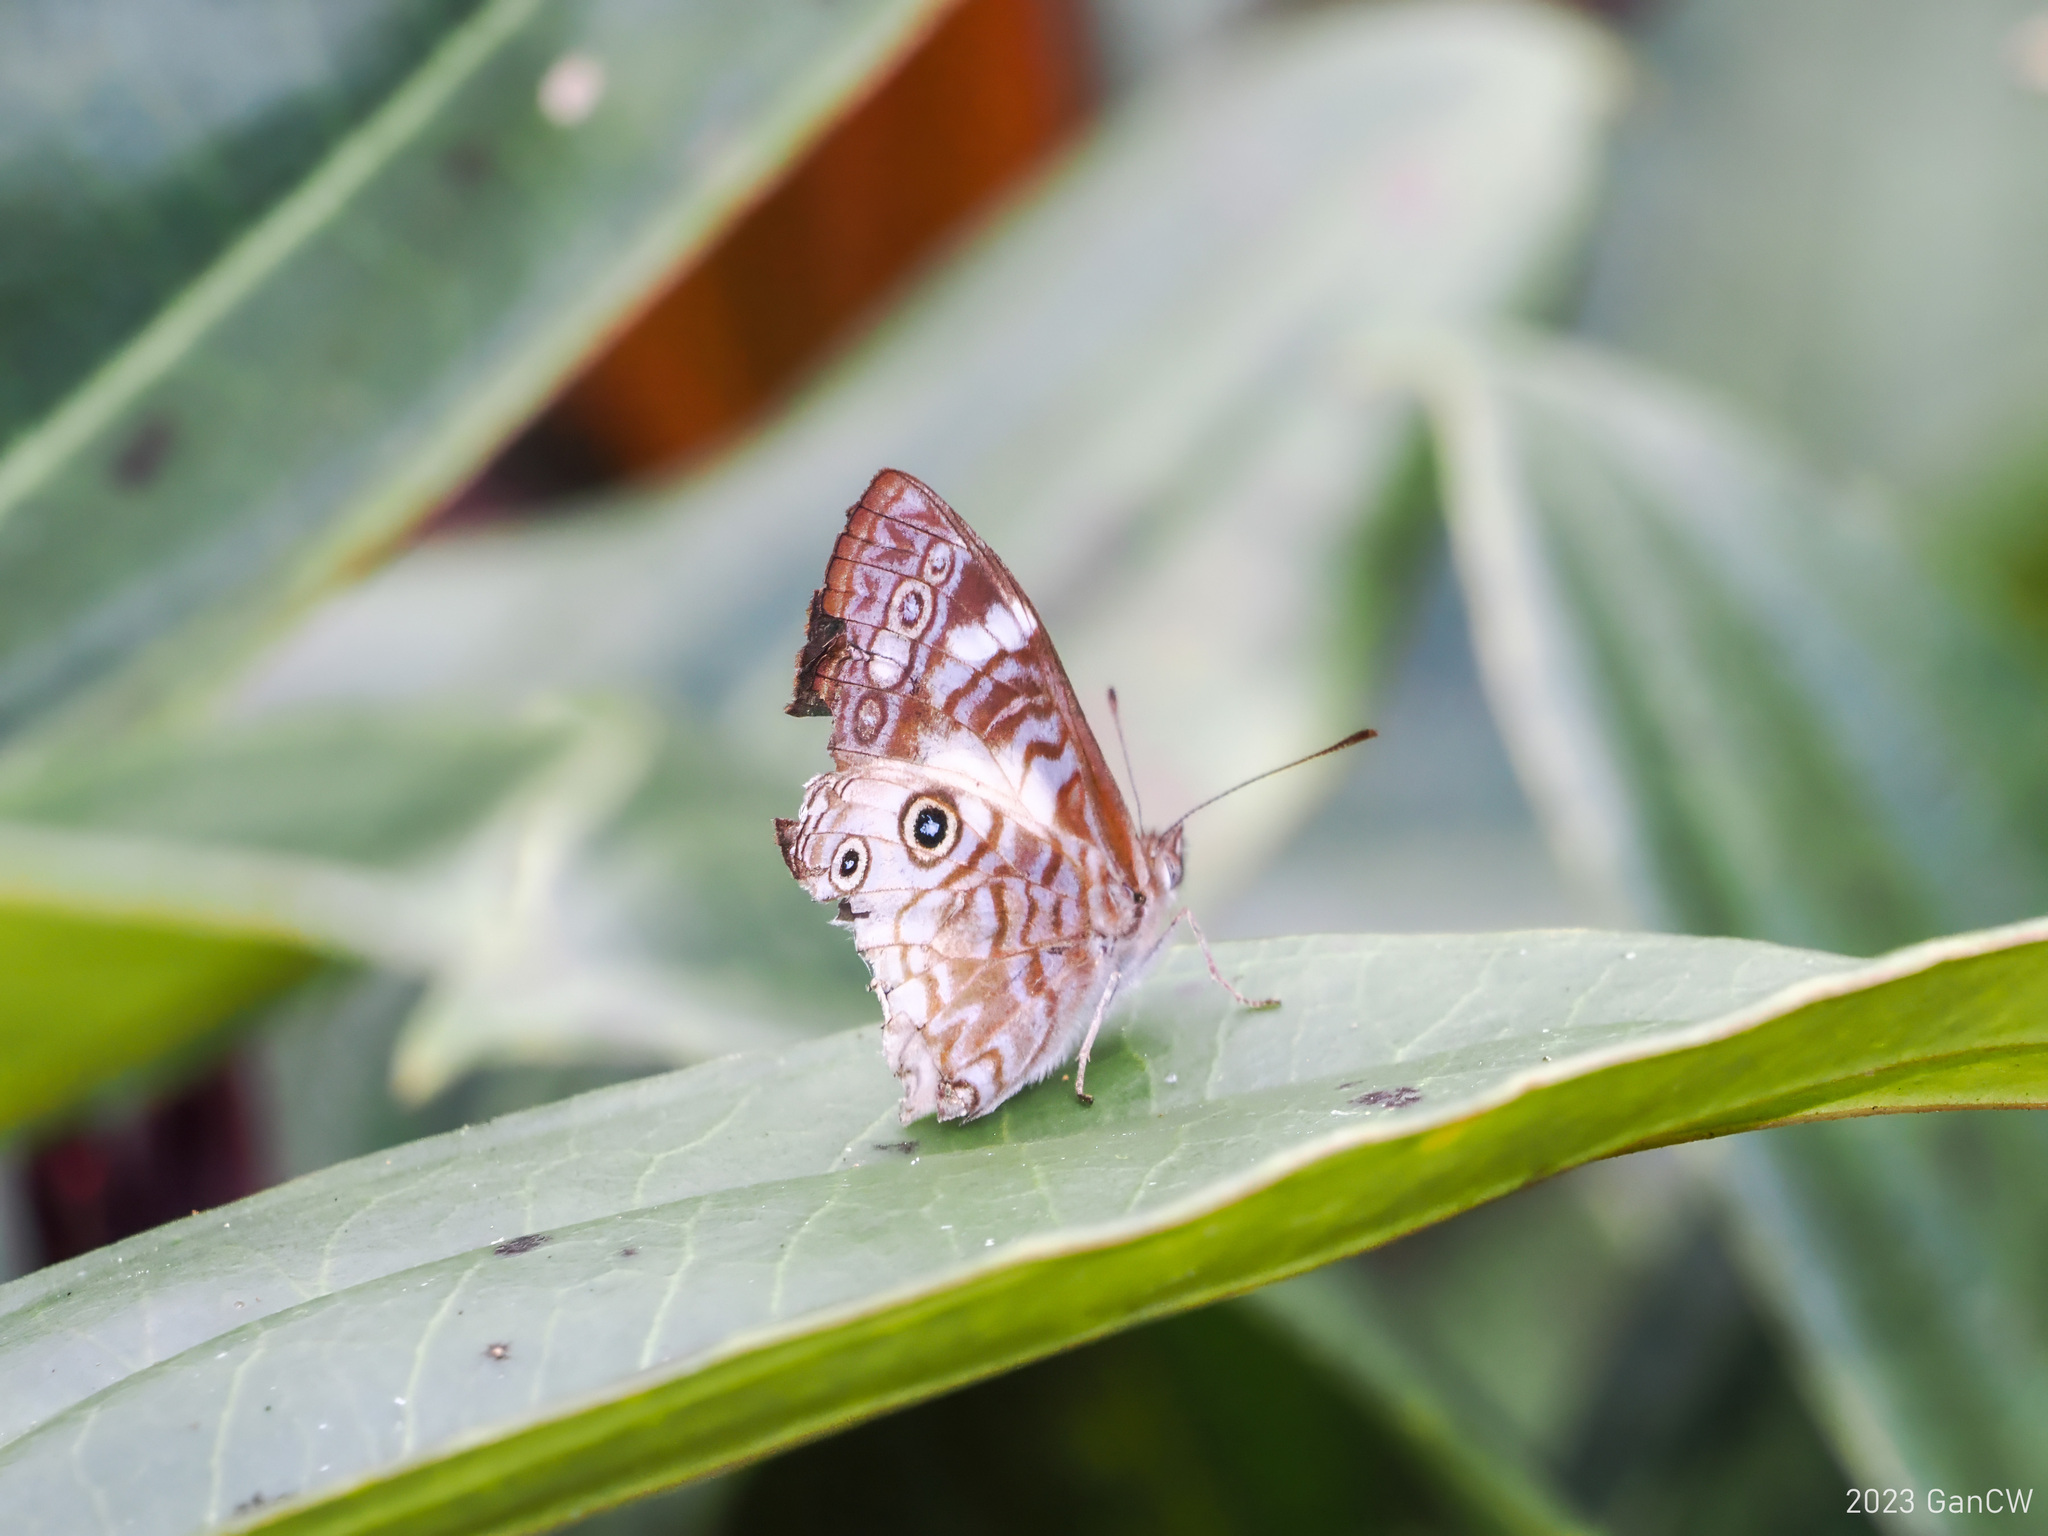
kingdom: Animalia
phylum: Arthropoda
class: Insecta
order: Lepidoptera
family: Nymphalidae
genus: Ptychandra
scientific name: Ptychandra talboti
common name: Bornean satyr
